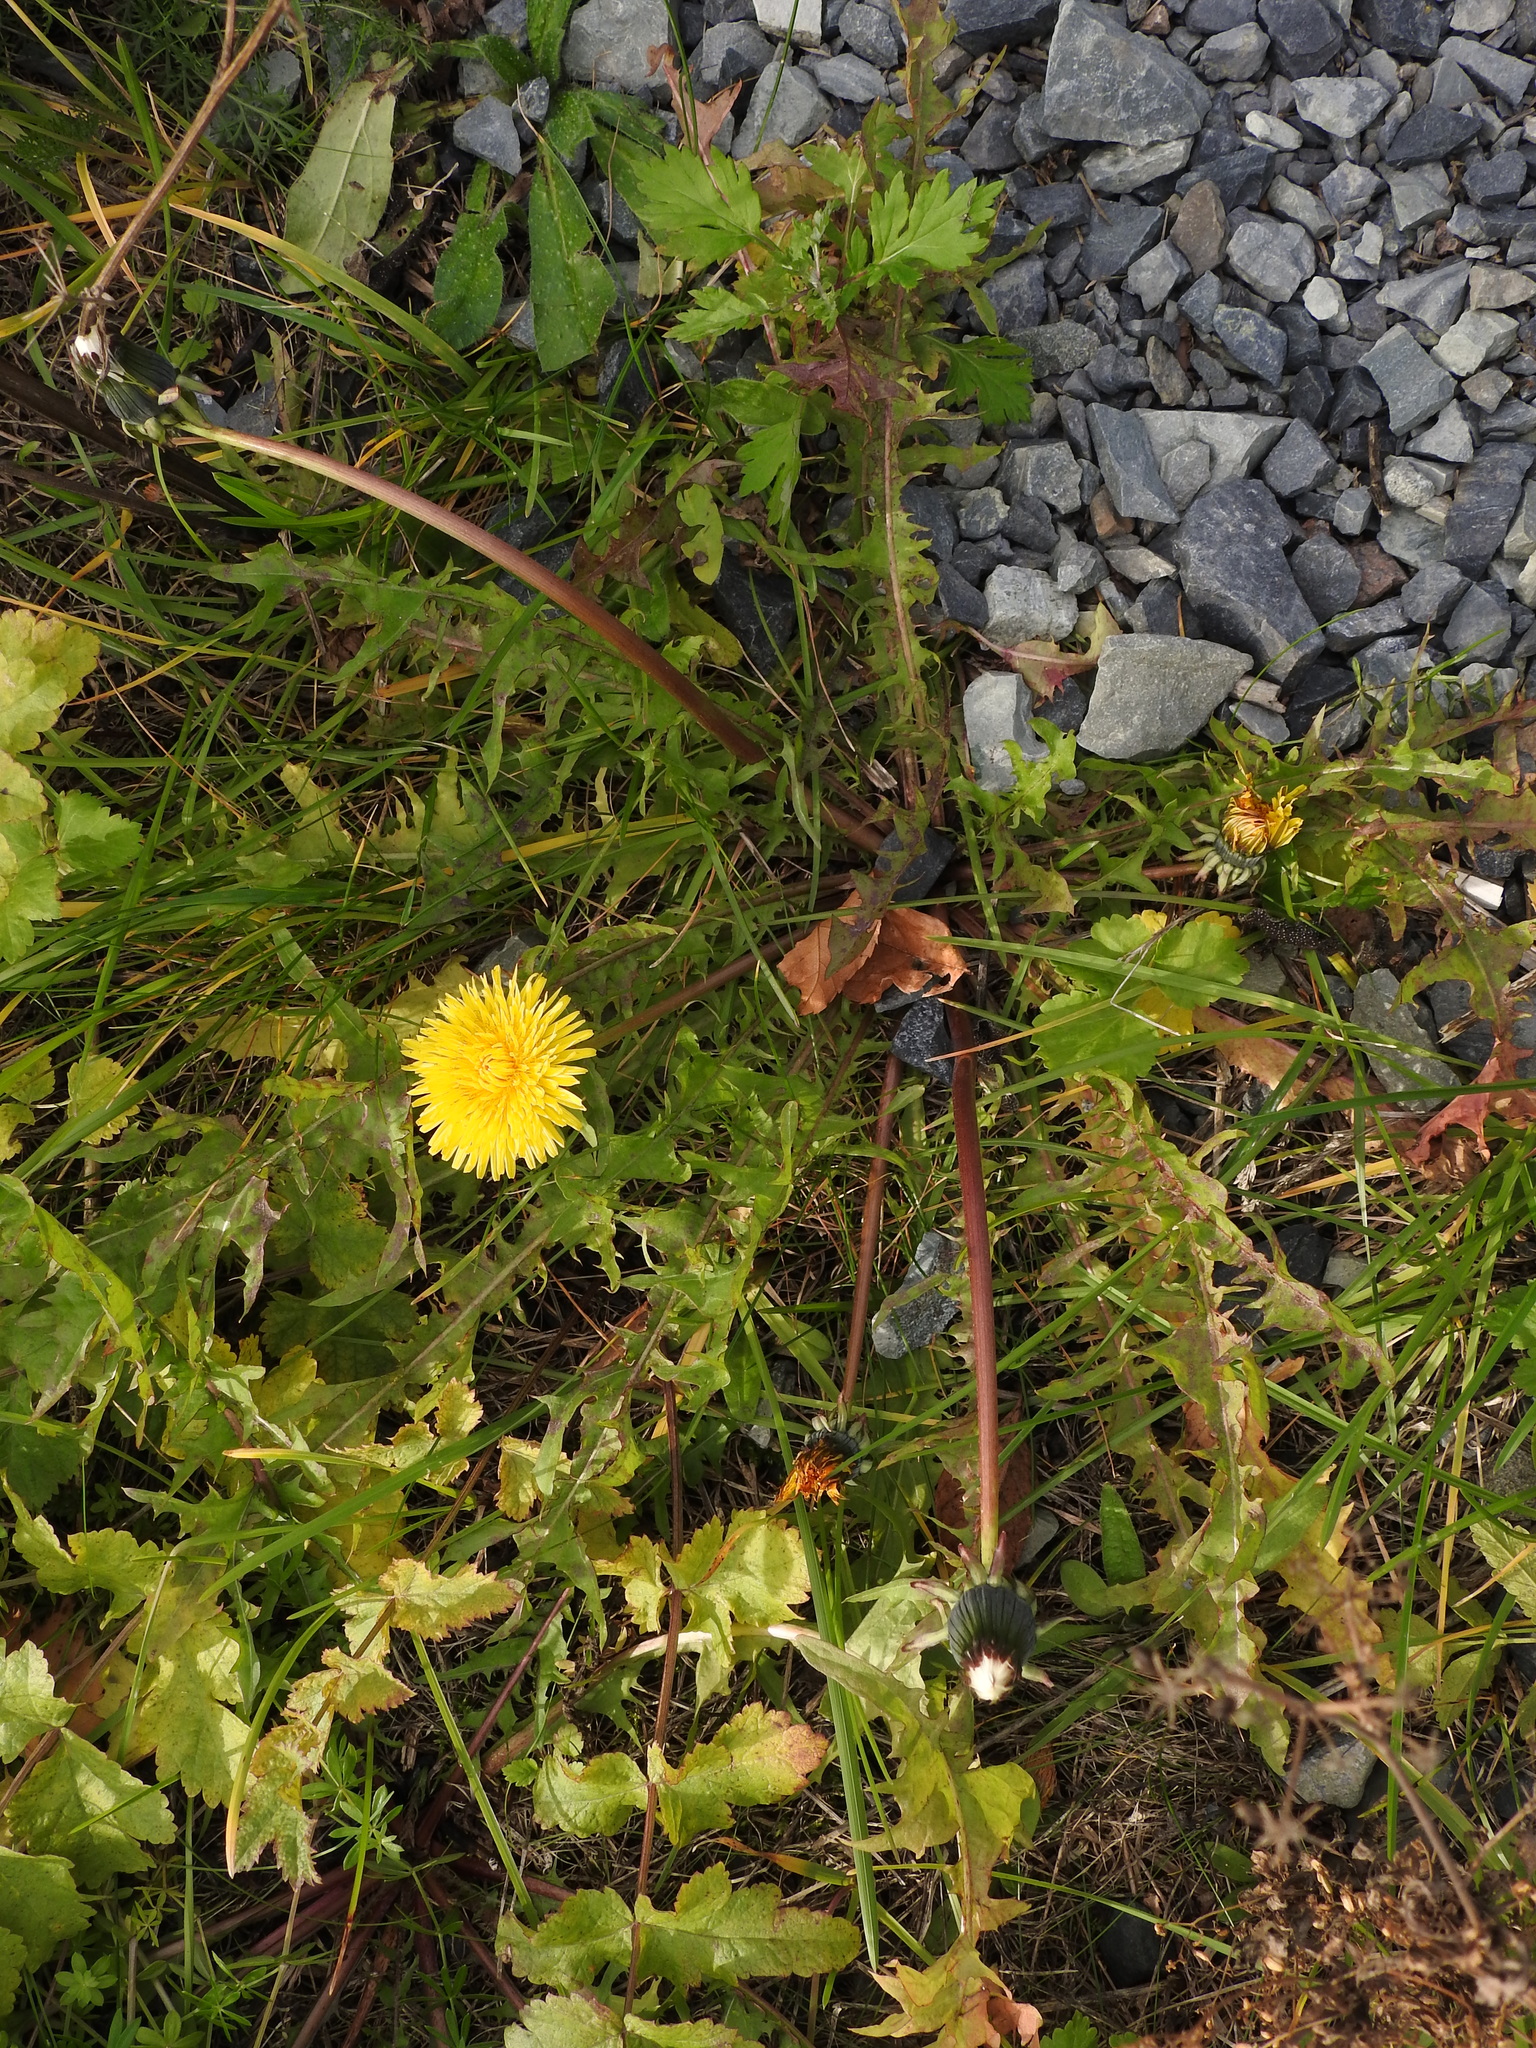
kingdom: Plantae
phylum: Tracheophyta
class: Magnoliopsida
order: Asterales
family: Asteraceae
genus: Taraxacum
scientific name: Taraxacum officinale
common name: Common dandelion
